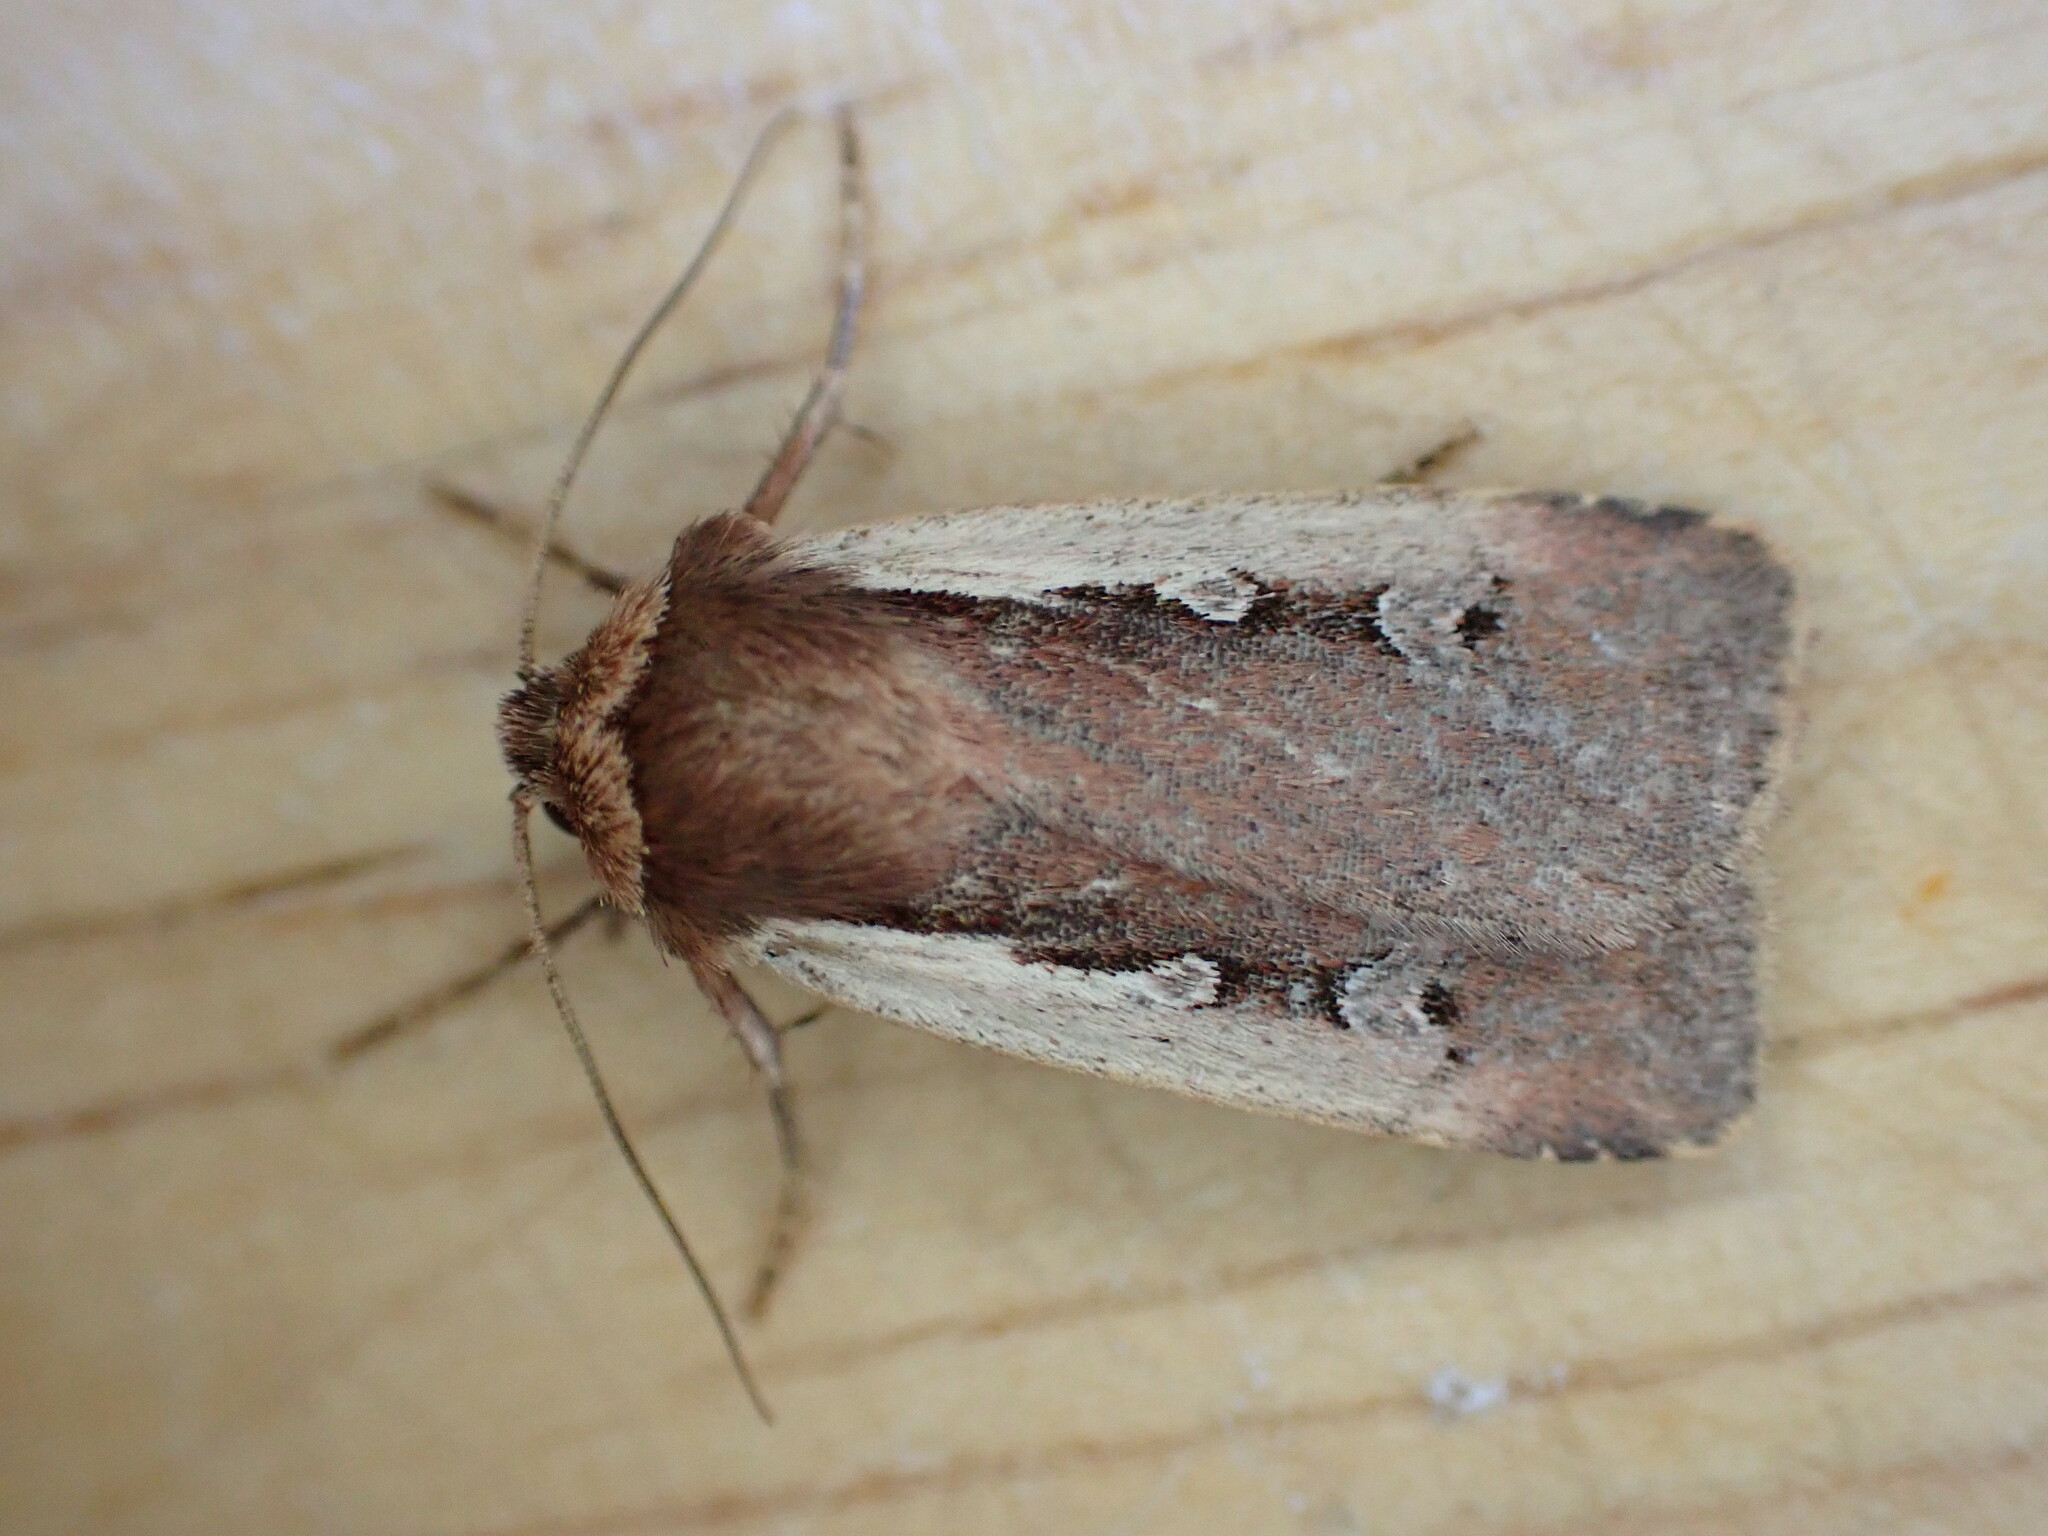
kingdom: Animalia
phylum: Arthropoda
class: Insecta
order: Lepidoptera
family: Noctuidae
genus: Ochropleura
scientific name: Ochropleura plecta
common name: Flame shoulder
